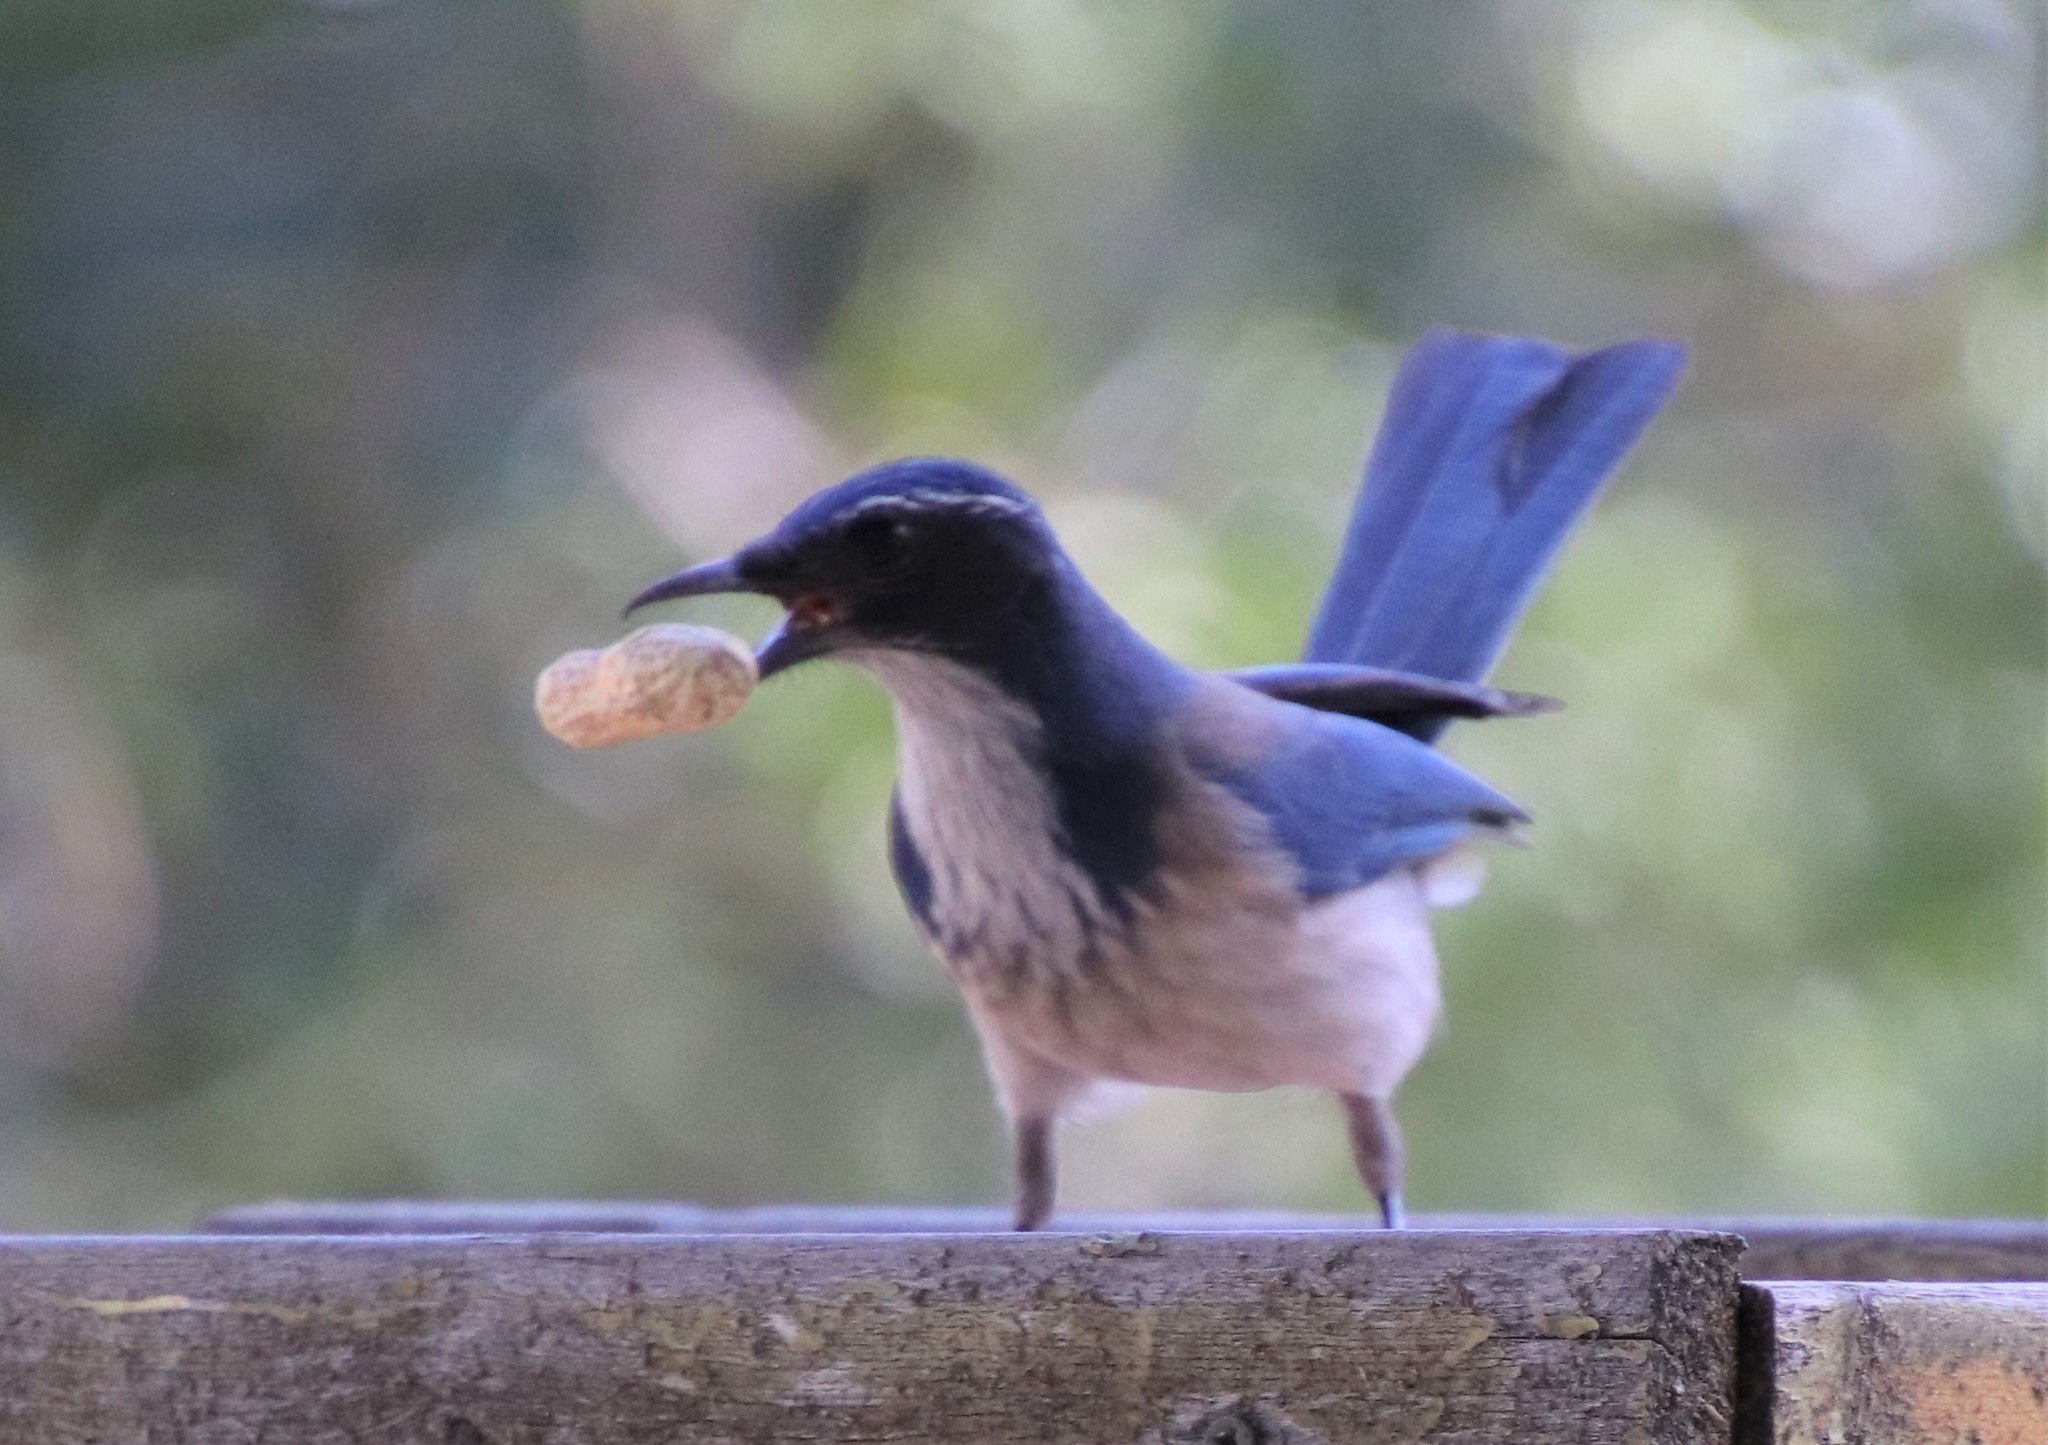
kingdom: Animalia
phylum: Chordata
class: Aves
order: Passeriformes
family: Corvidae
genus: Aphelocoma
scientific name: Aphelocoma californica
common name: California scrub-jay
